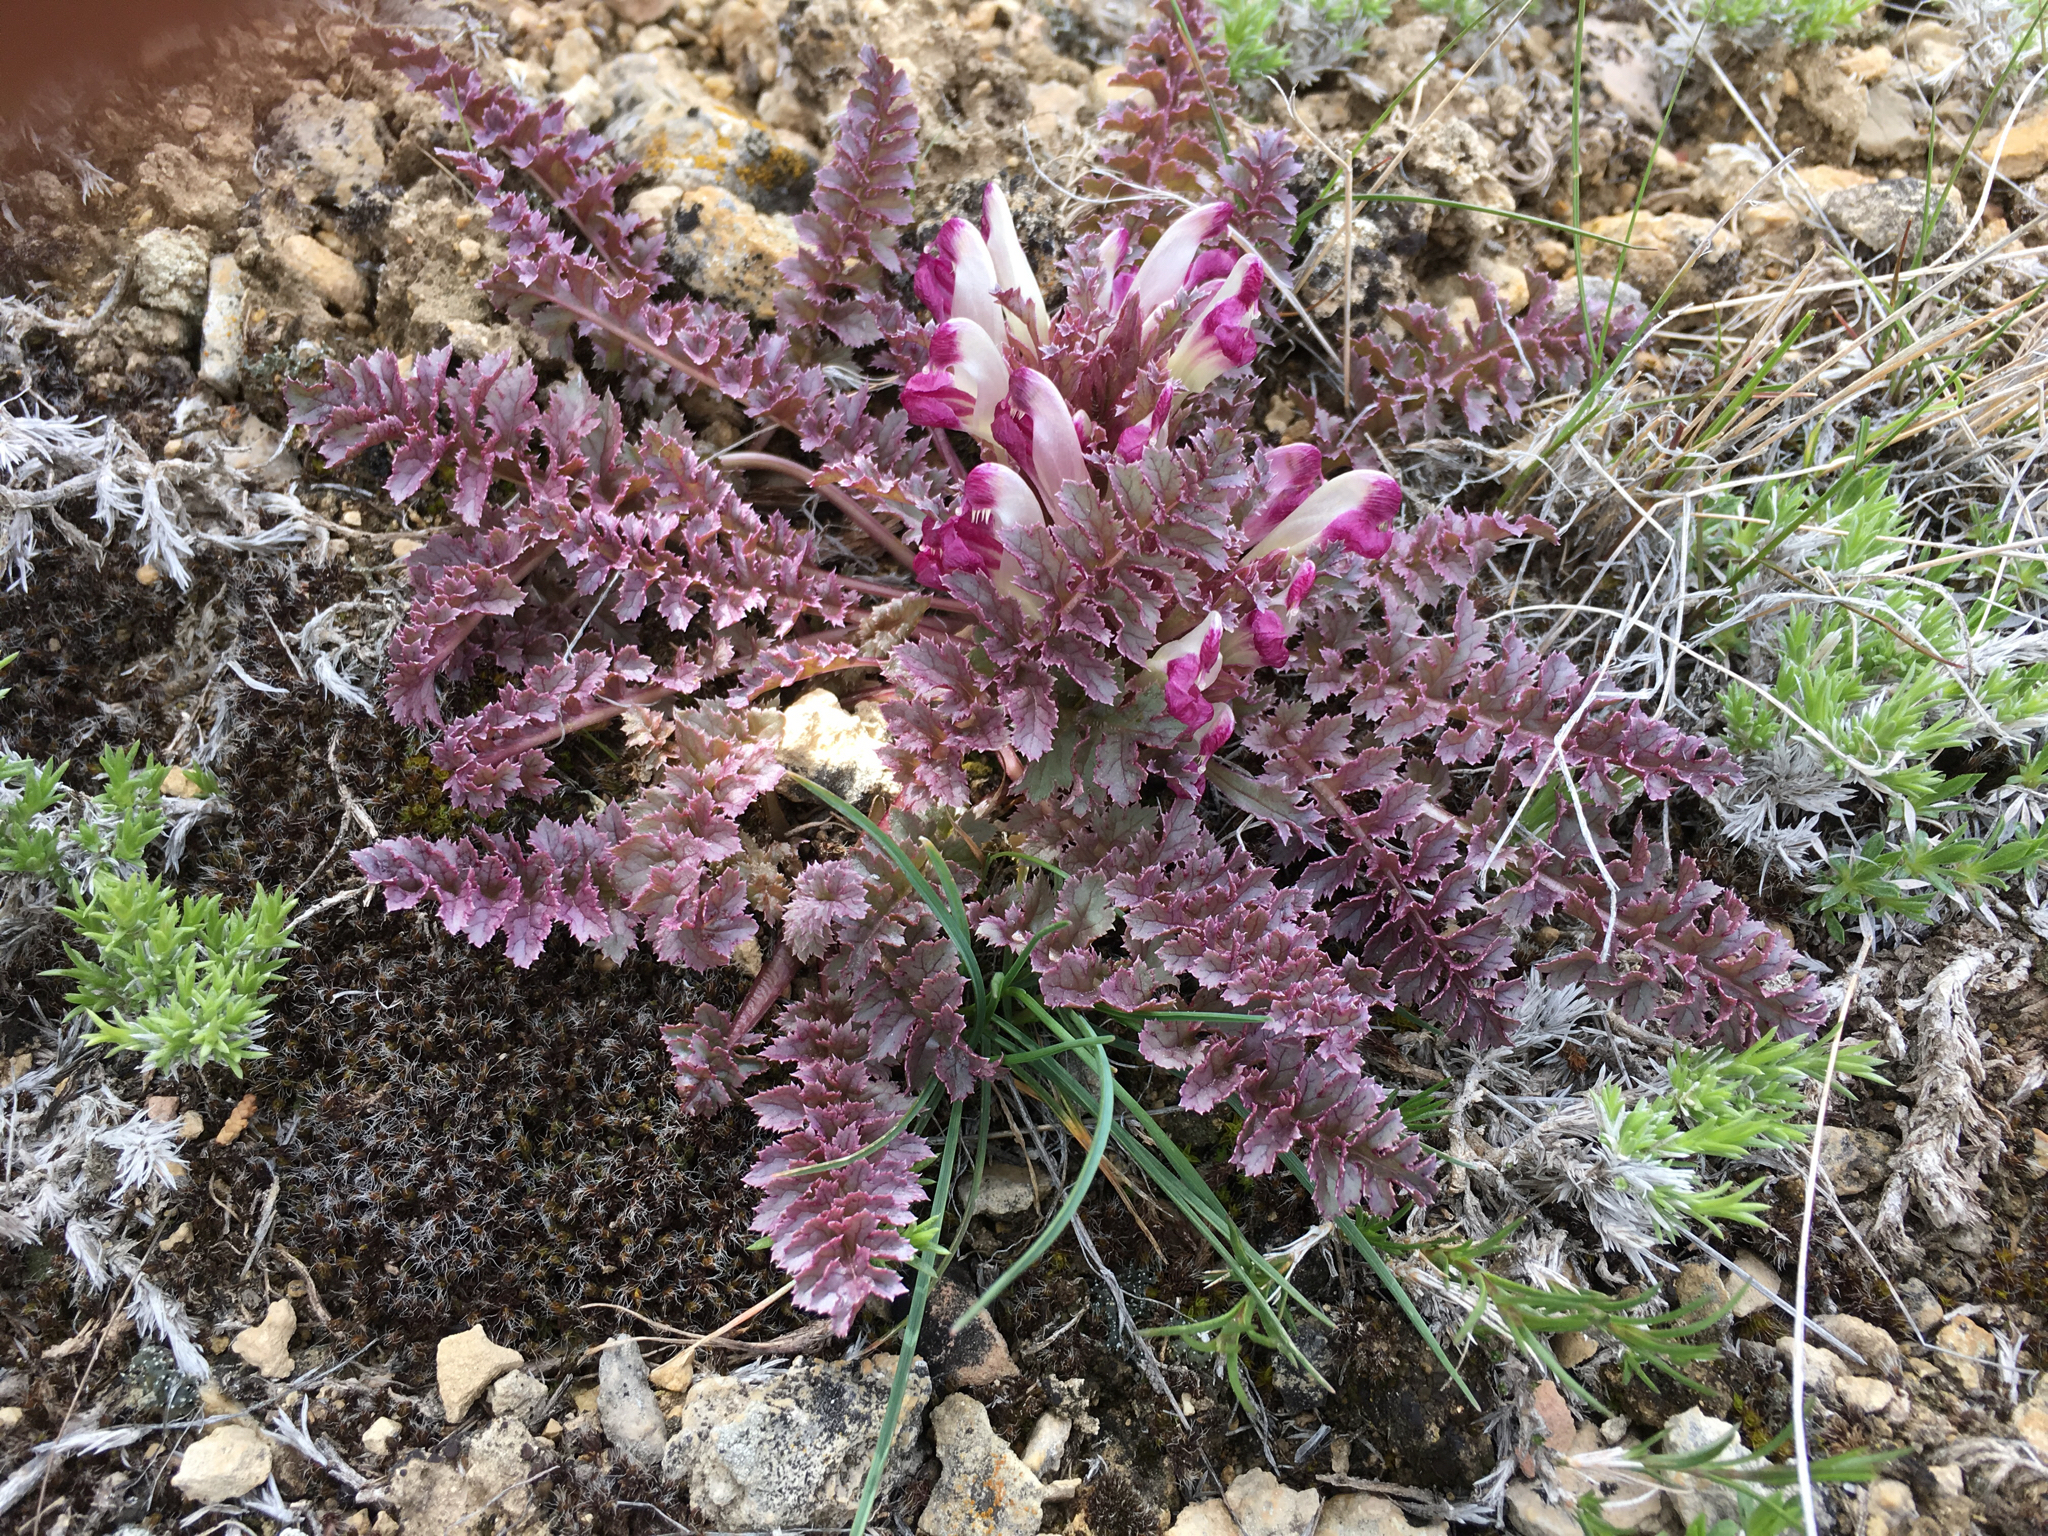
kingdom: Plantae
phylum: Tracheophyta
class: Magnoliopsida
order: Lamiales
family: Orobanchaceae
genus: Pedicularis
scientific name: Pedicularis centranthera
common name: Dwarf lousewort
